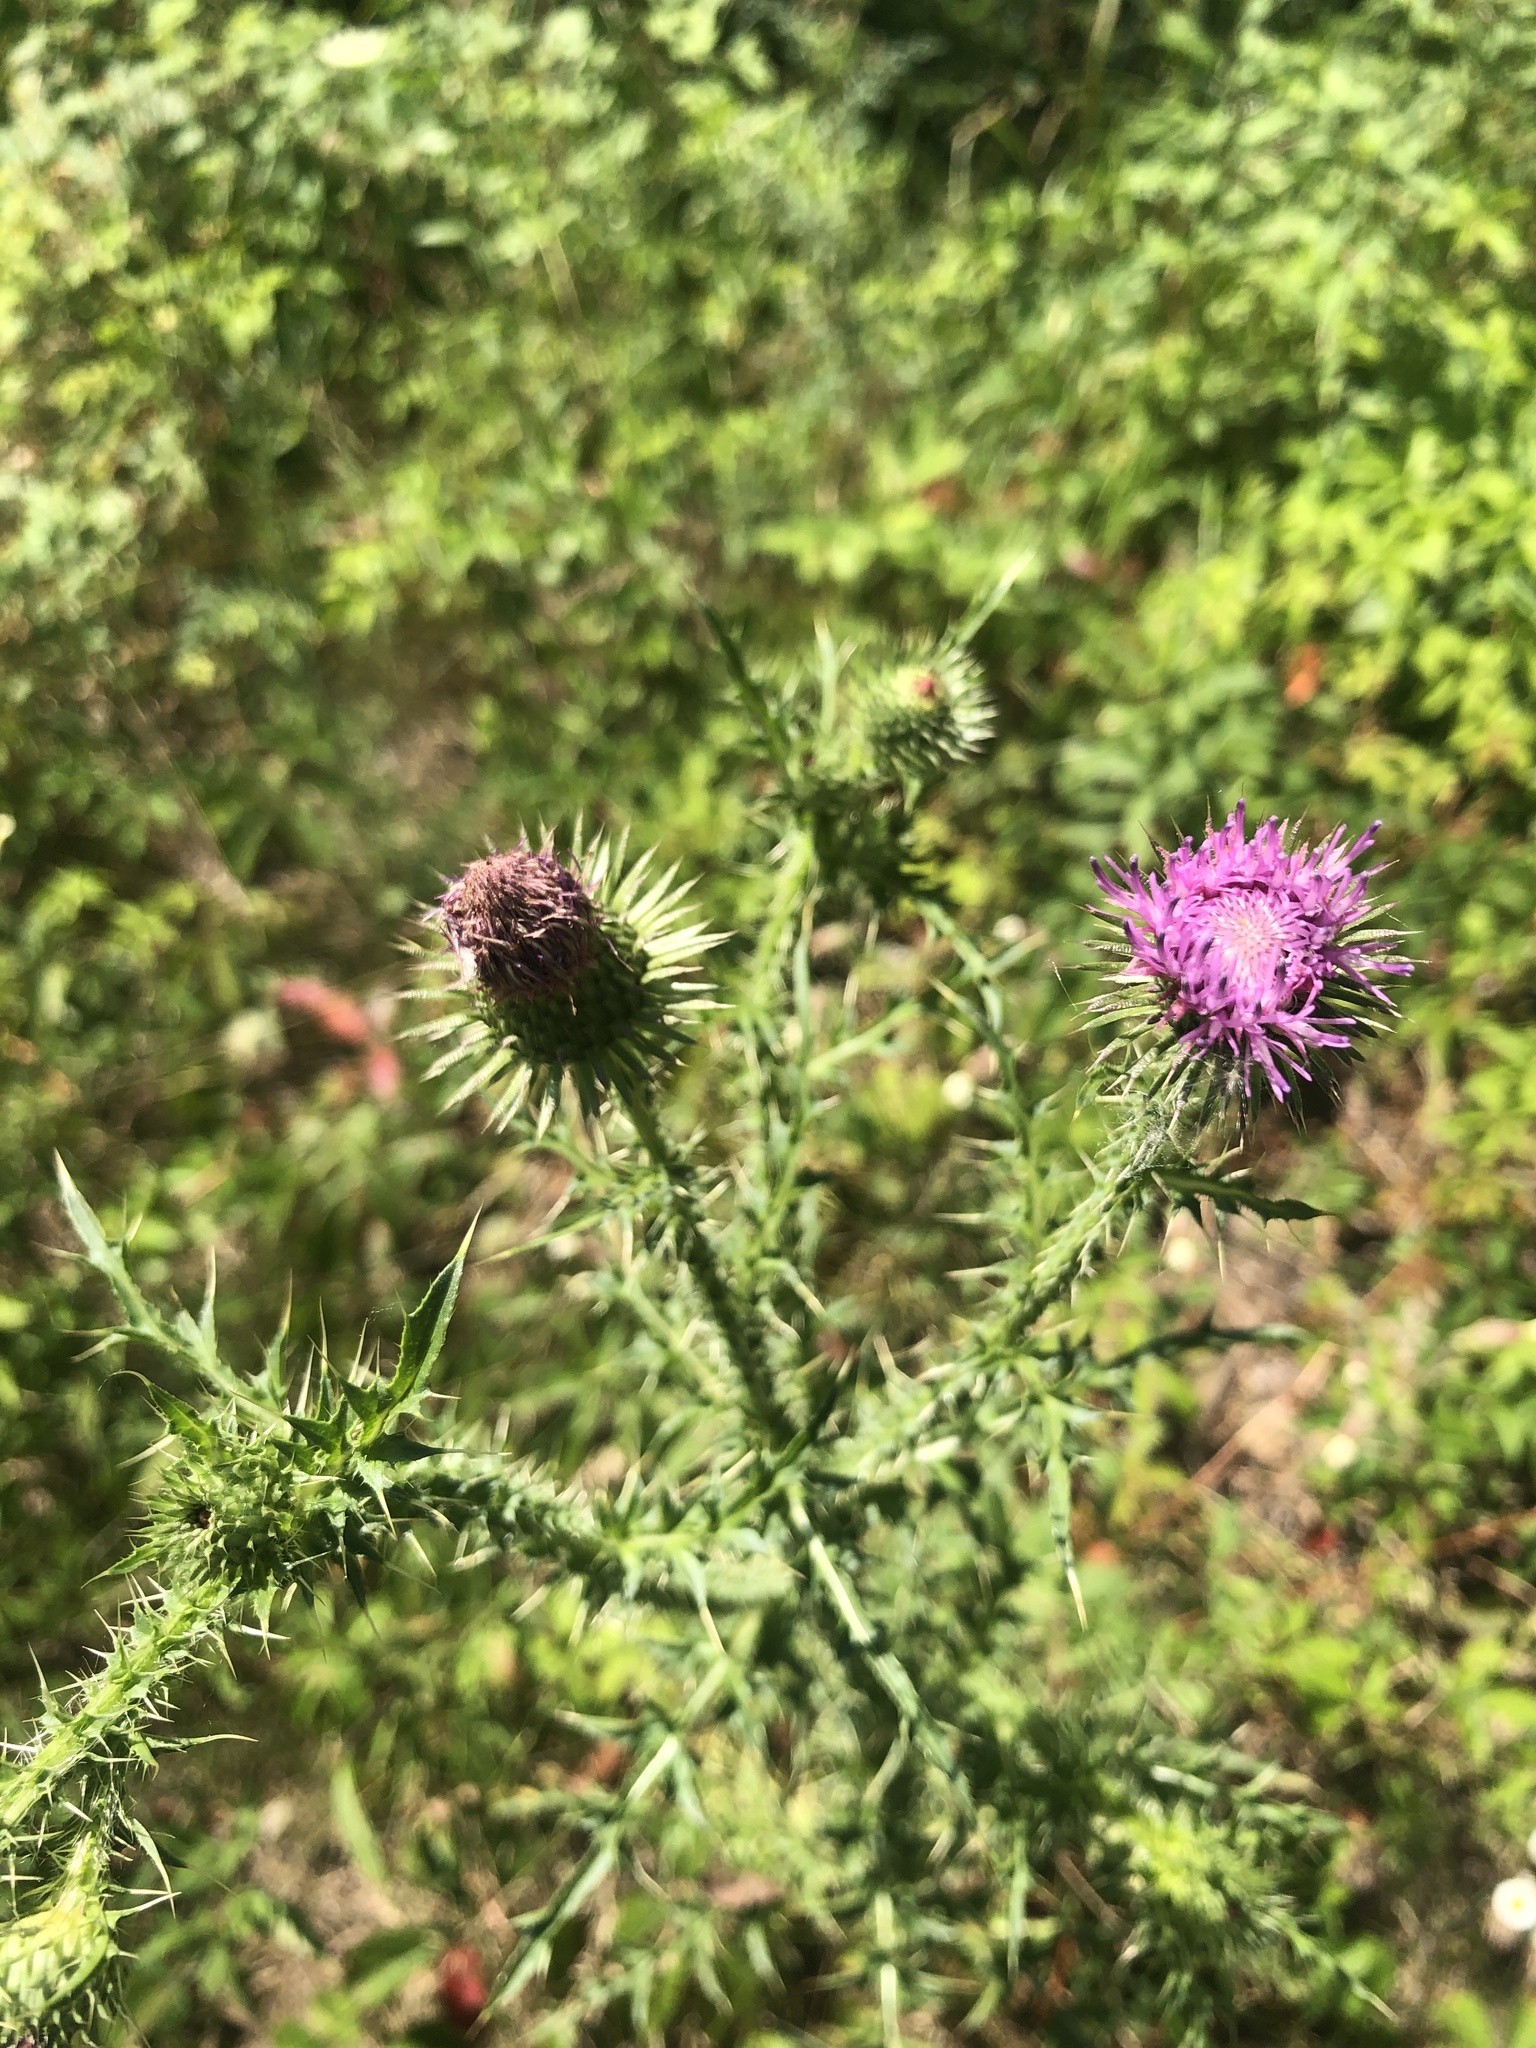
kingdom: Plantae
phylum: Tracheophyta
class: Magnoliopsida
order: Asterales
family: Asteraceae
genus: Carduus
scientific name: Carduus acanthoides
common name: Plumeless thistle
